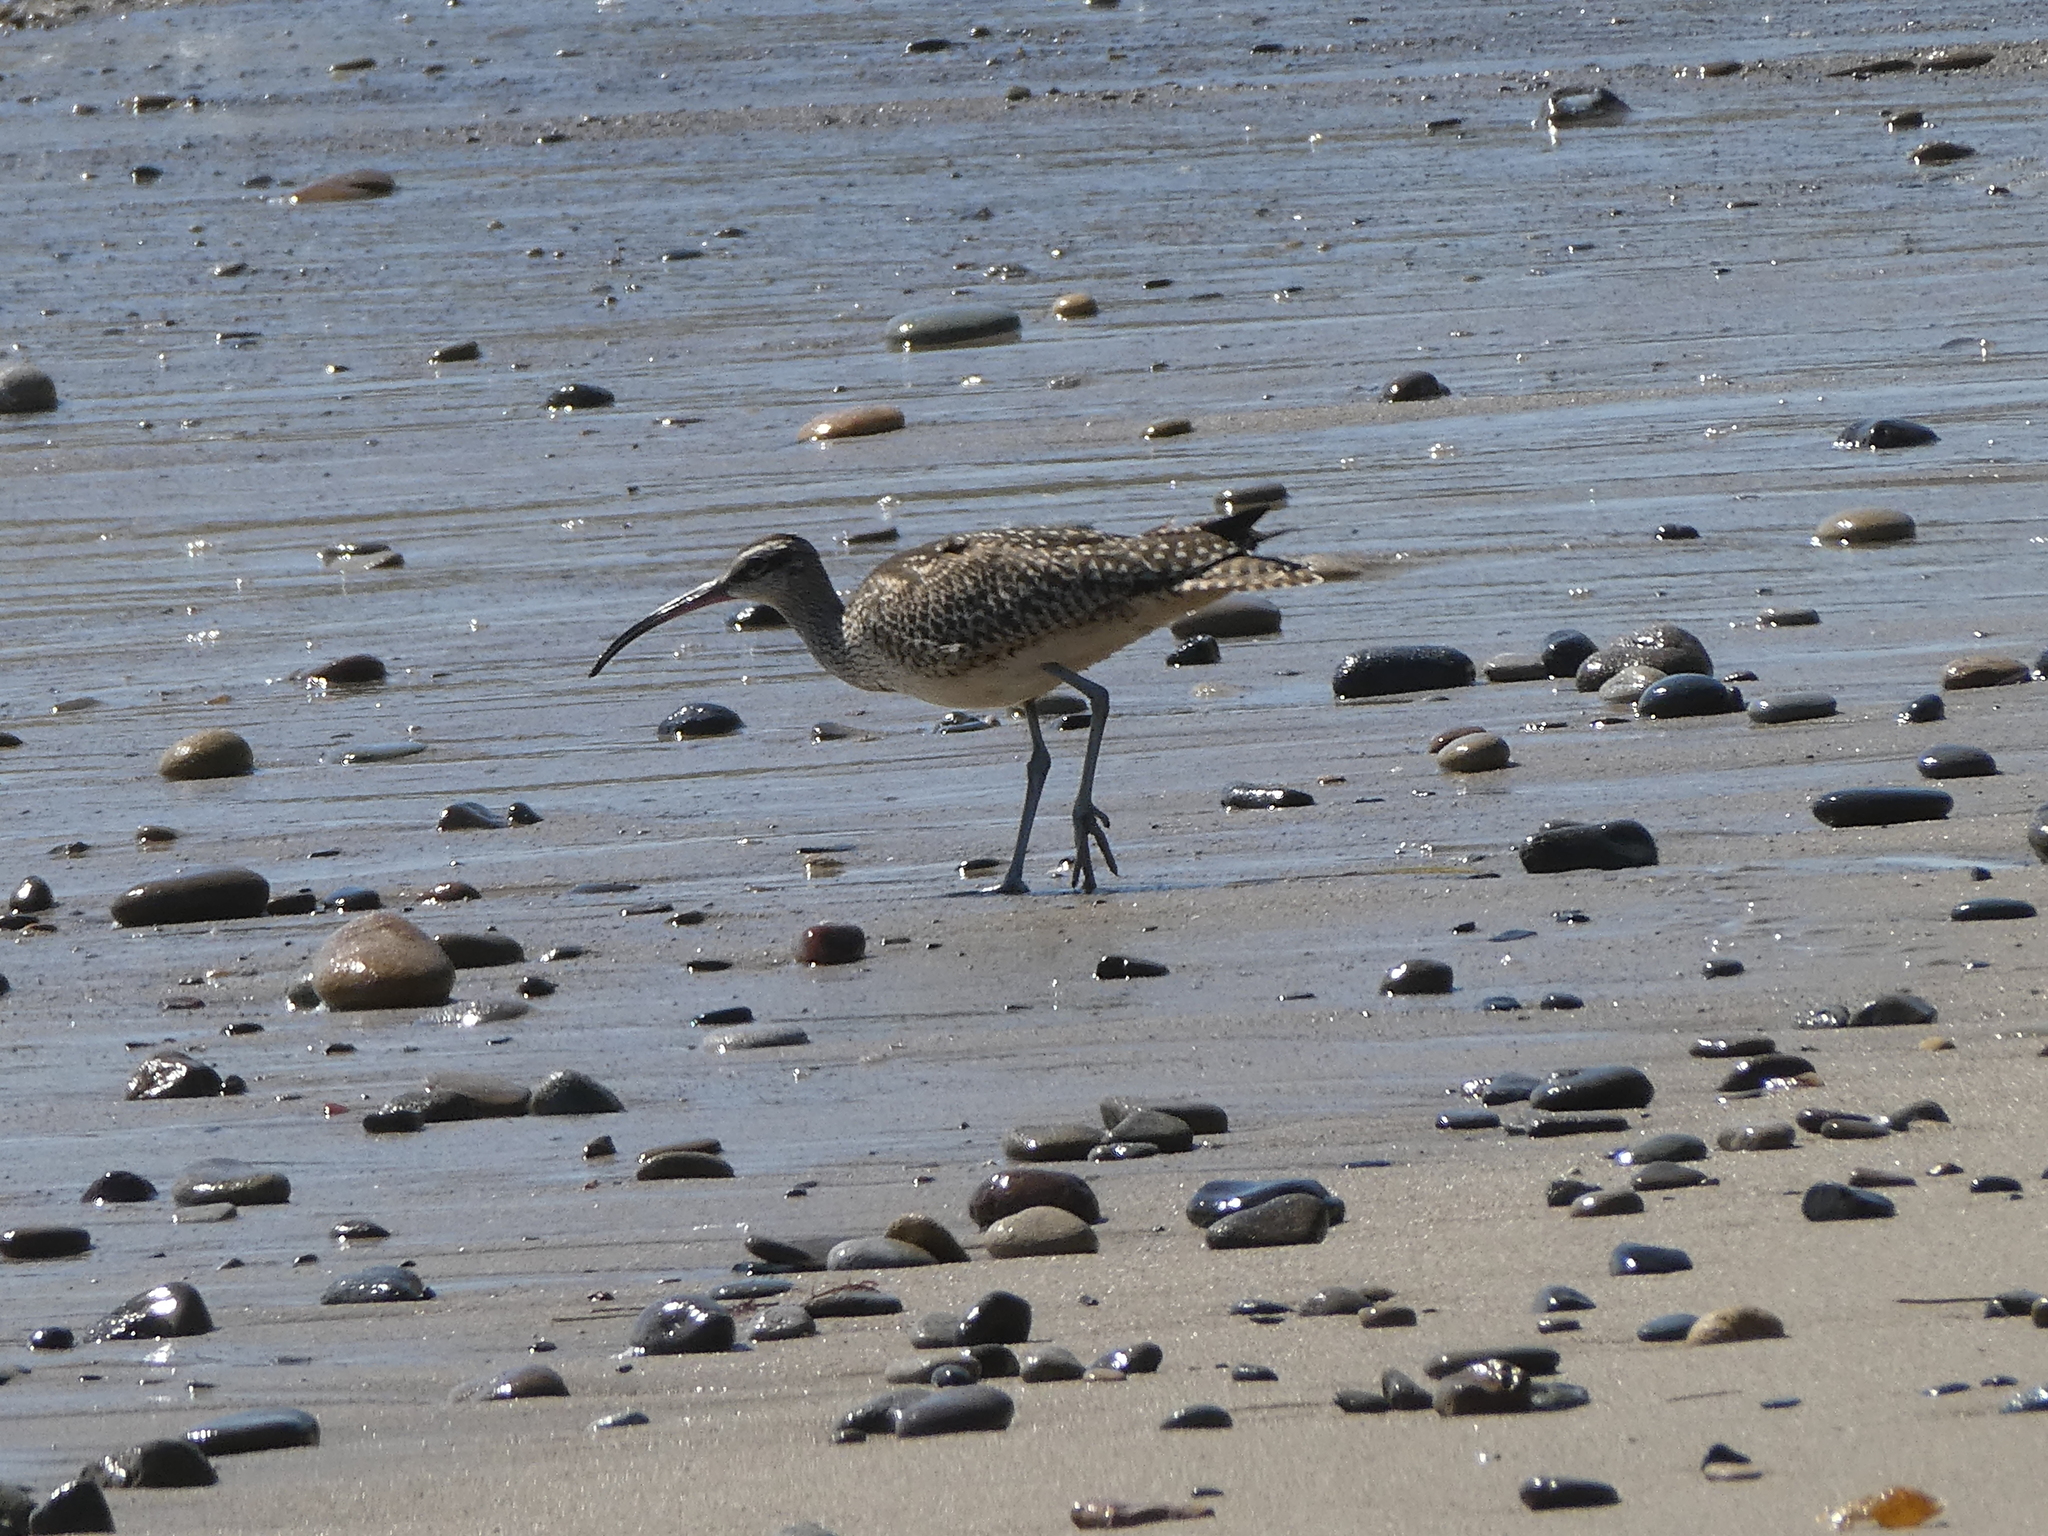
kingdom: Animalia
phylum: Chordata
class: Aves
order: Charadriiformes
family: Scolopacidae
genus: Numenius
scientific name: Numenius phaeopus
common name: Whimbrel
